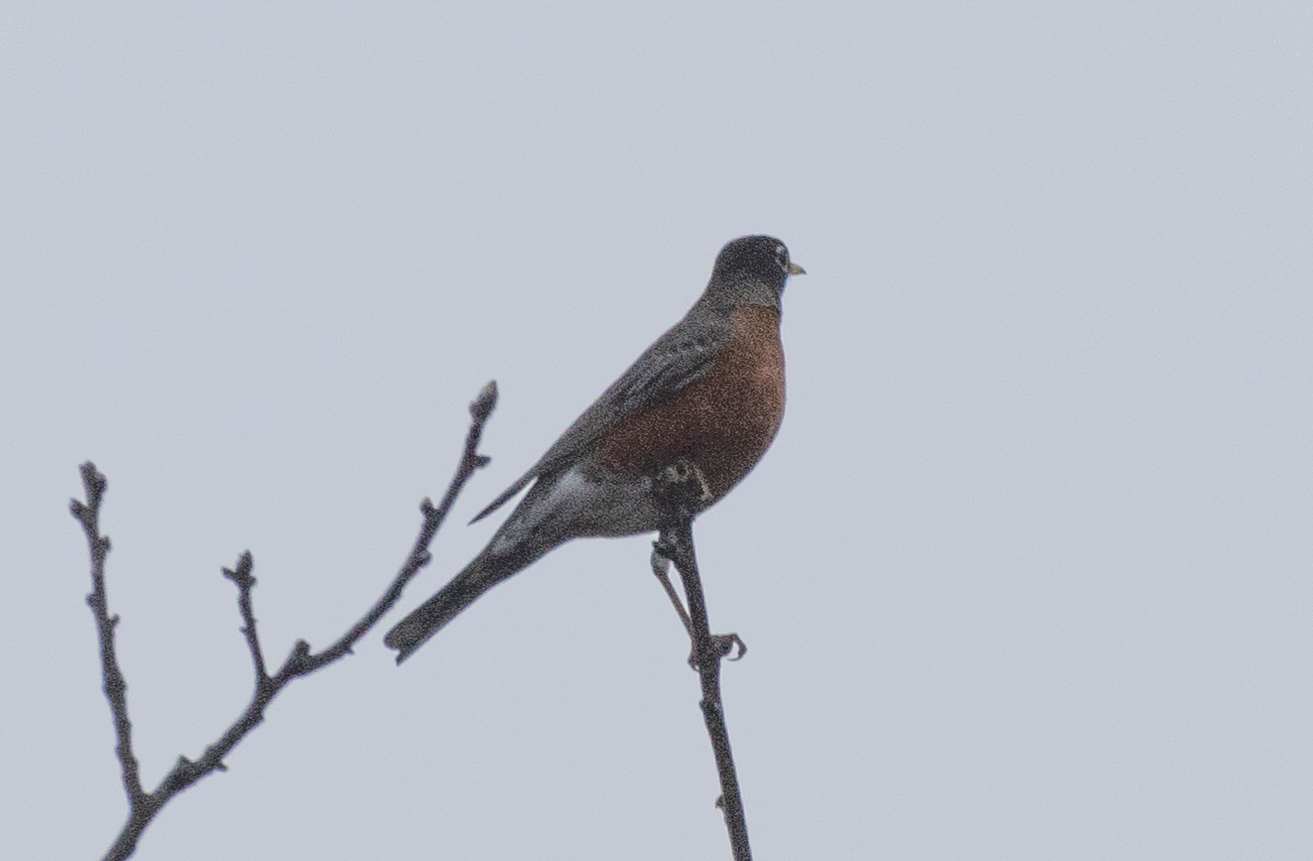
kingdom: Animalia
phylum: Chordata
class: Aves
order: Passeriformes
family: Turdidae
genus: Turdus
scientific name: Turdus migratorius
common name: American robin
